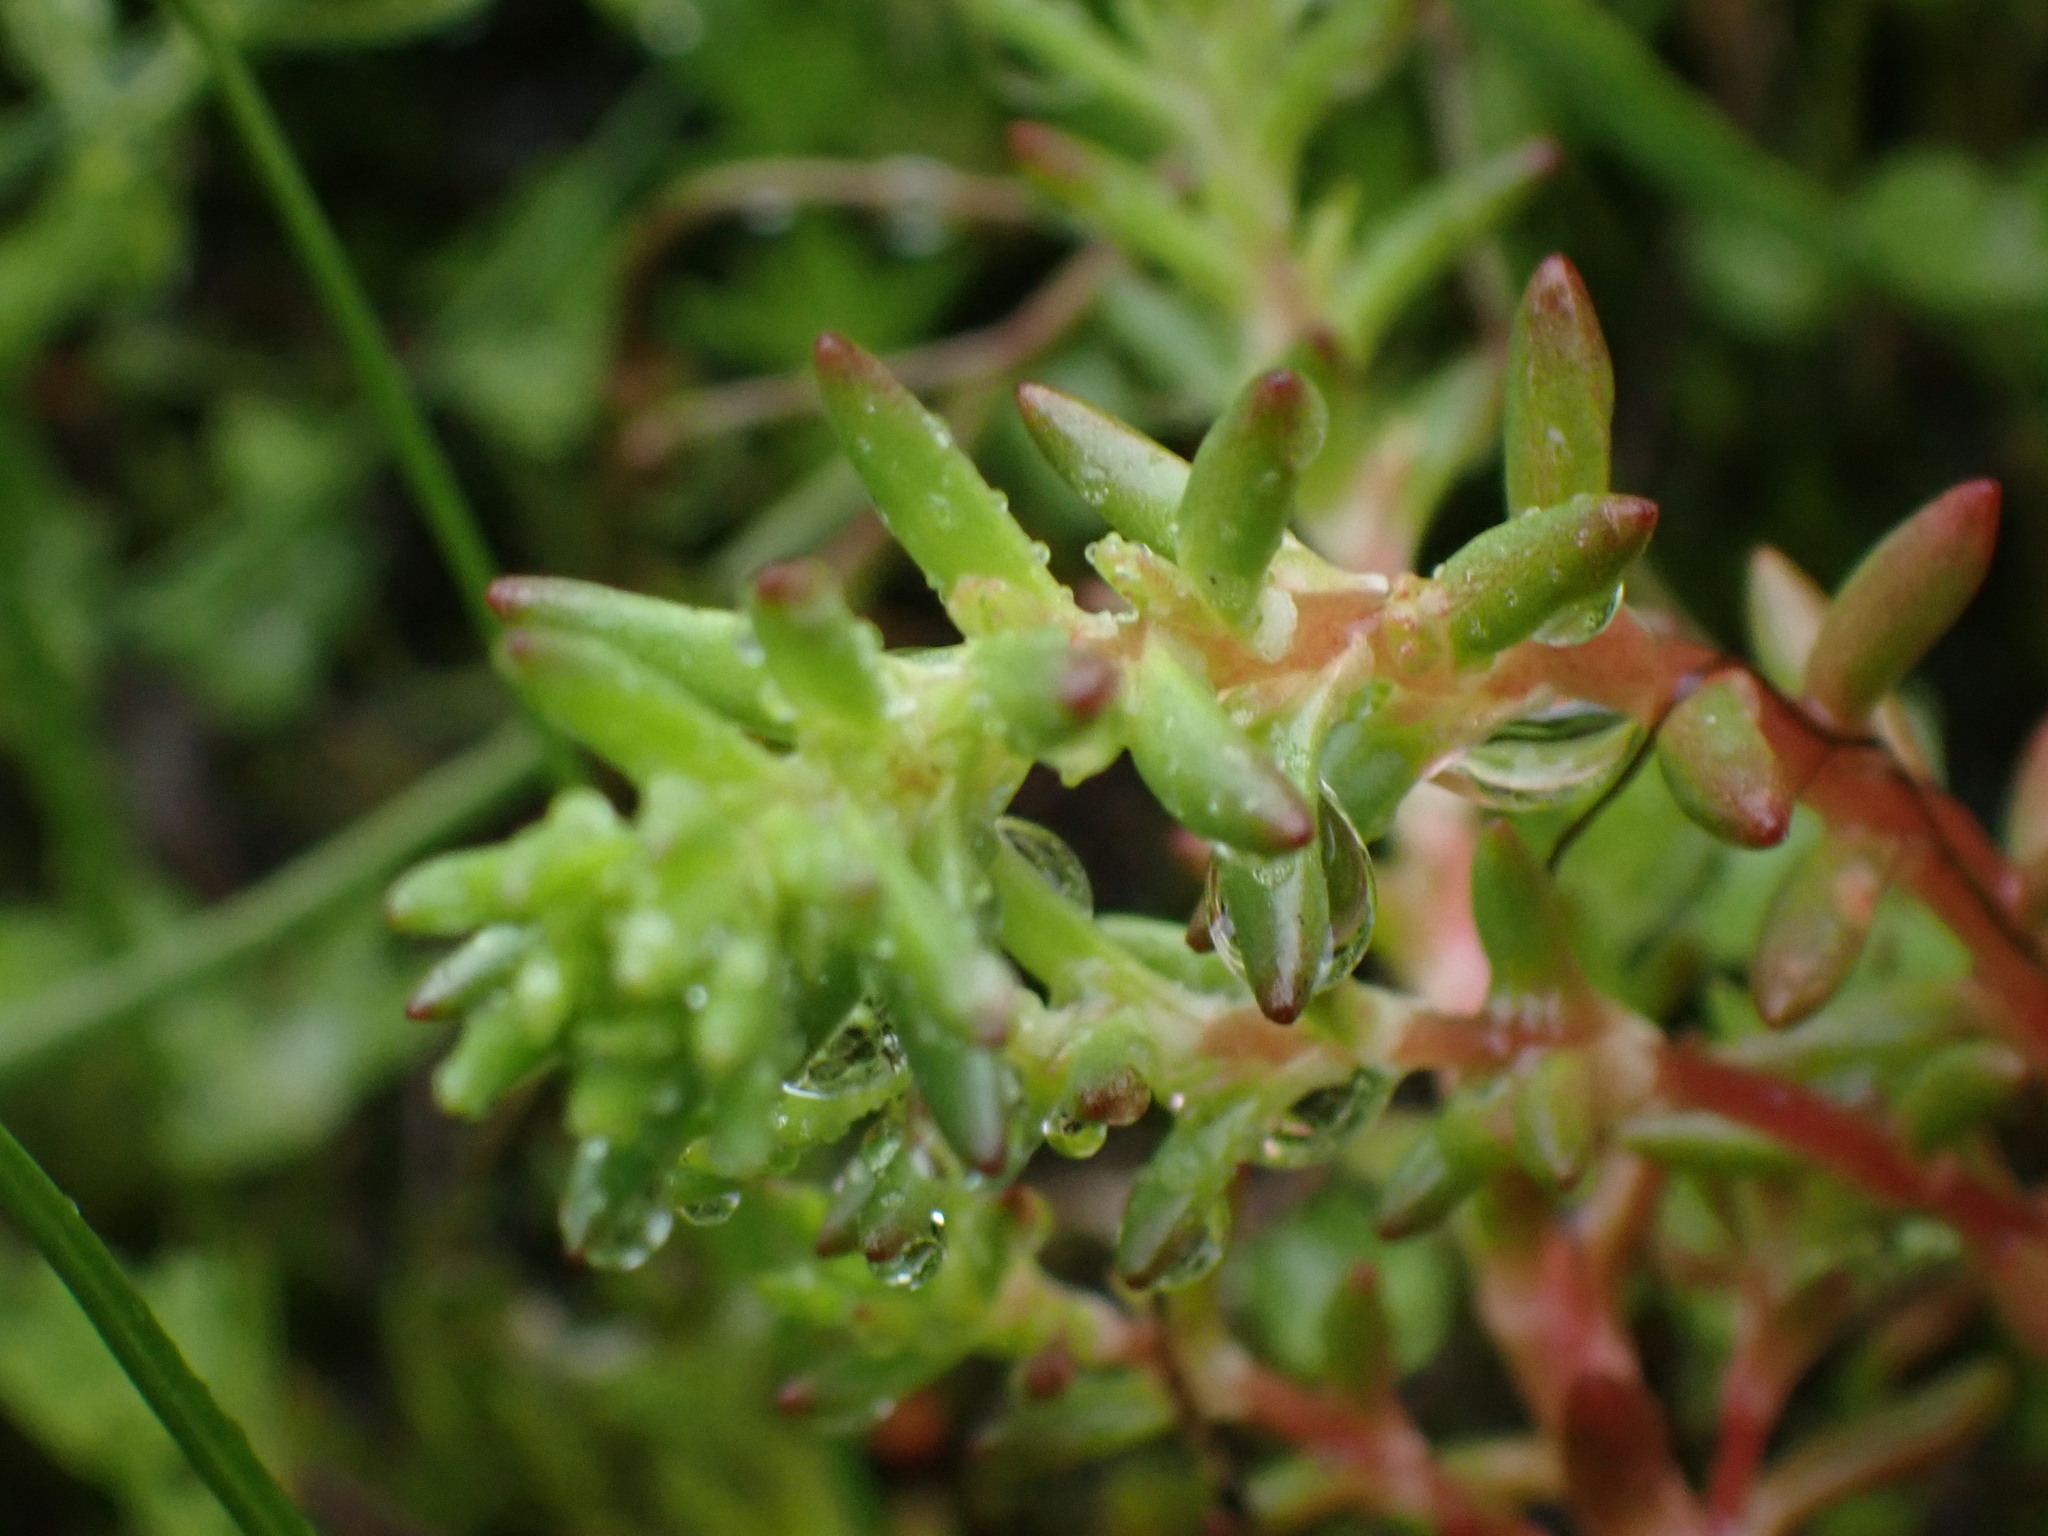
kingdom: Plantae
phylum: Tracheophyta
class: Magnoliopsida
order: Saxifragales
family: Crassulaceae
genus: Sedum
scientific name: Sedum stenopetalum
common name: Narrow-petaled stonecrop
